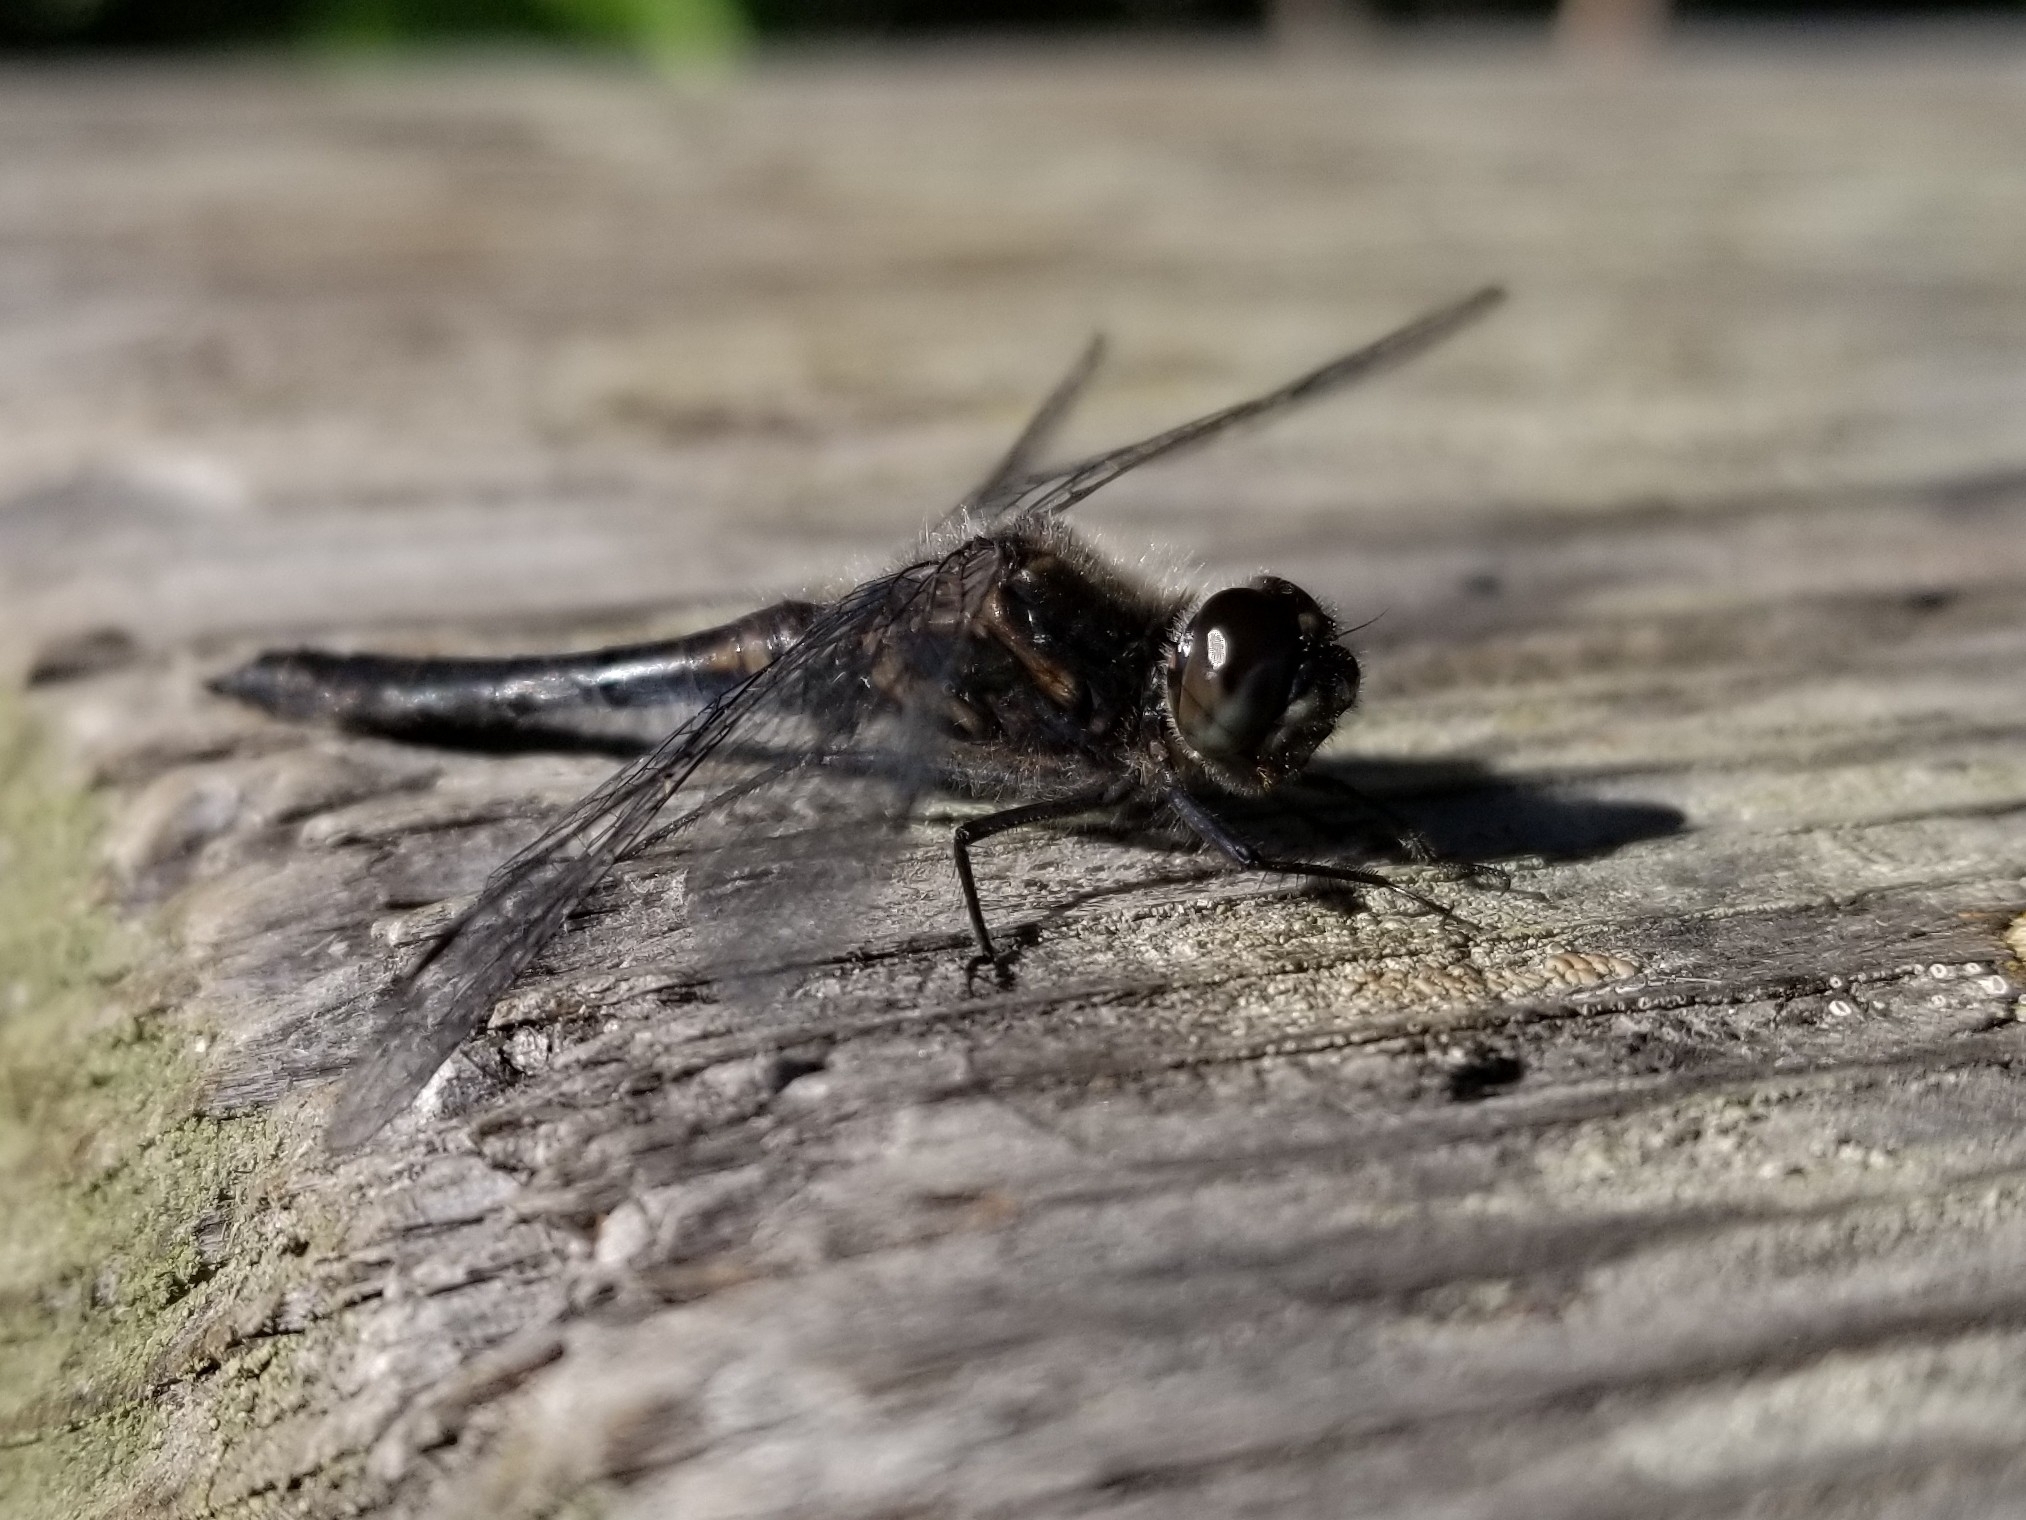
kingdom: Animalia
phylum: Arthropoda
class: Insecta
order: Odonata
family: Libellulidae
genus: Sympetrum
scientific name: Sympetrum danae
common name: Black darter
